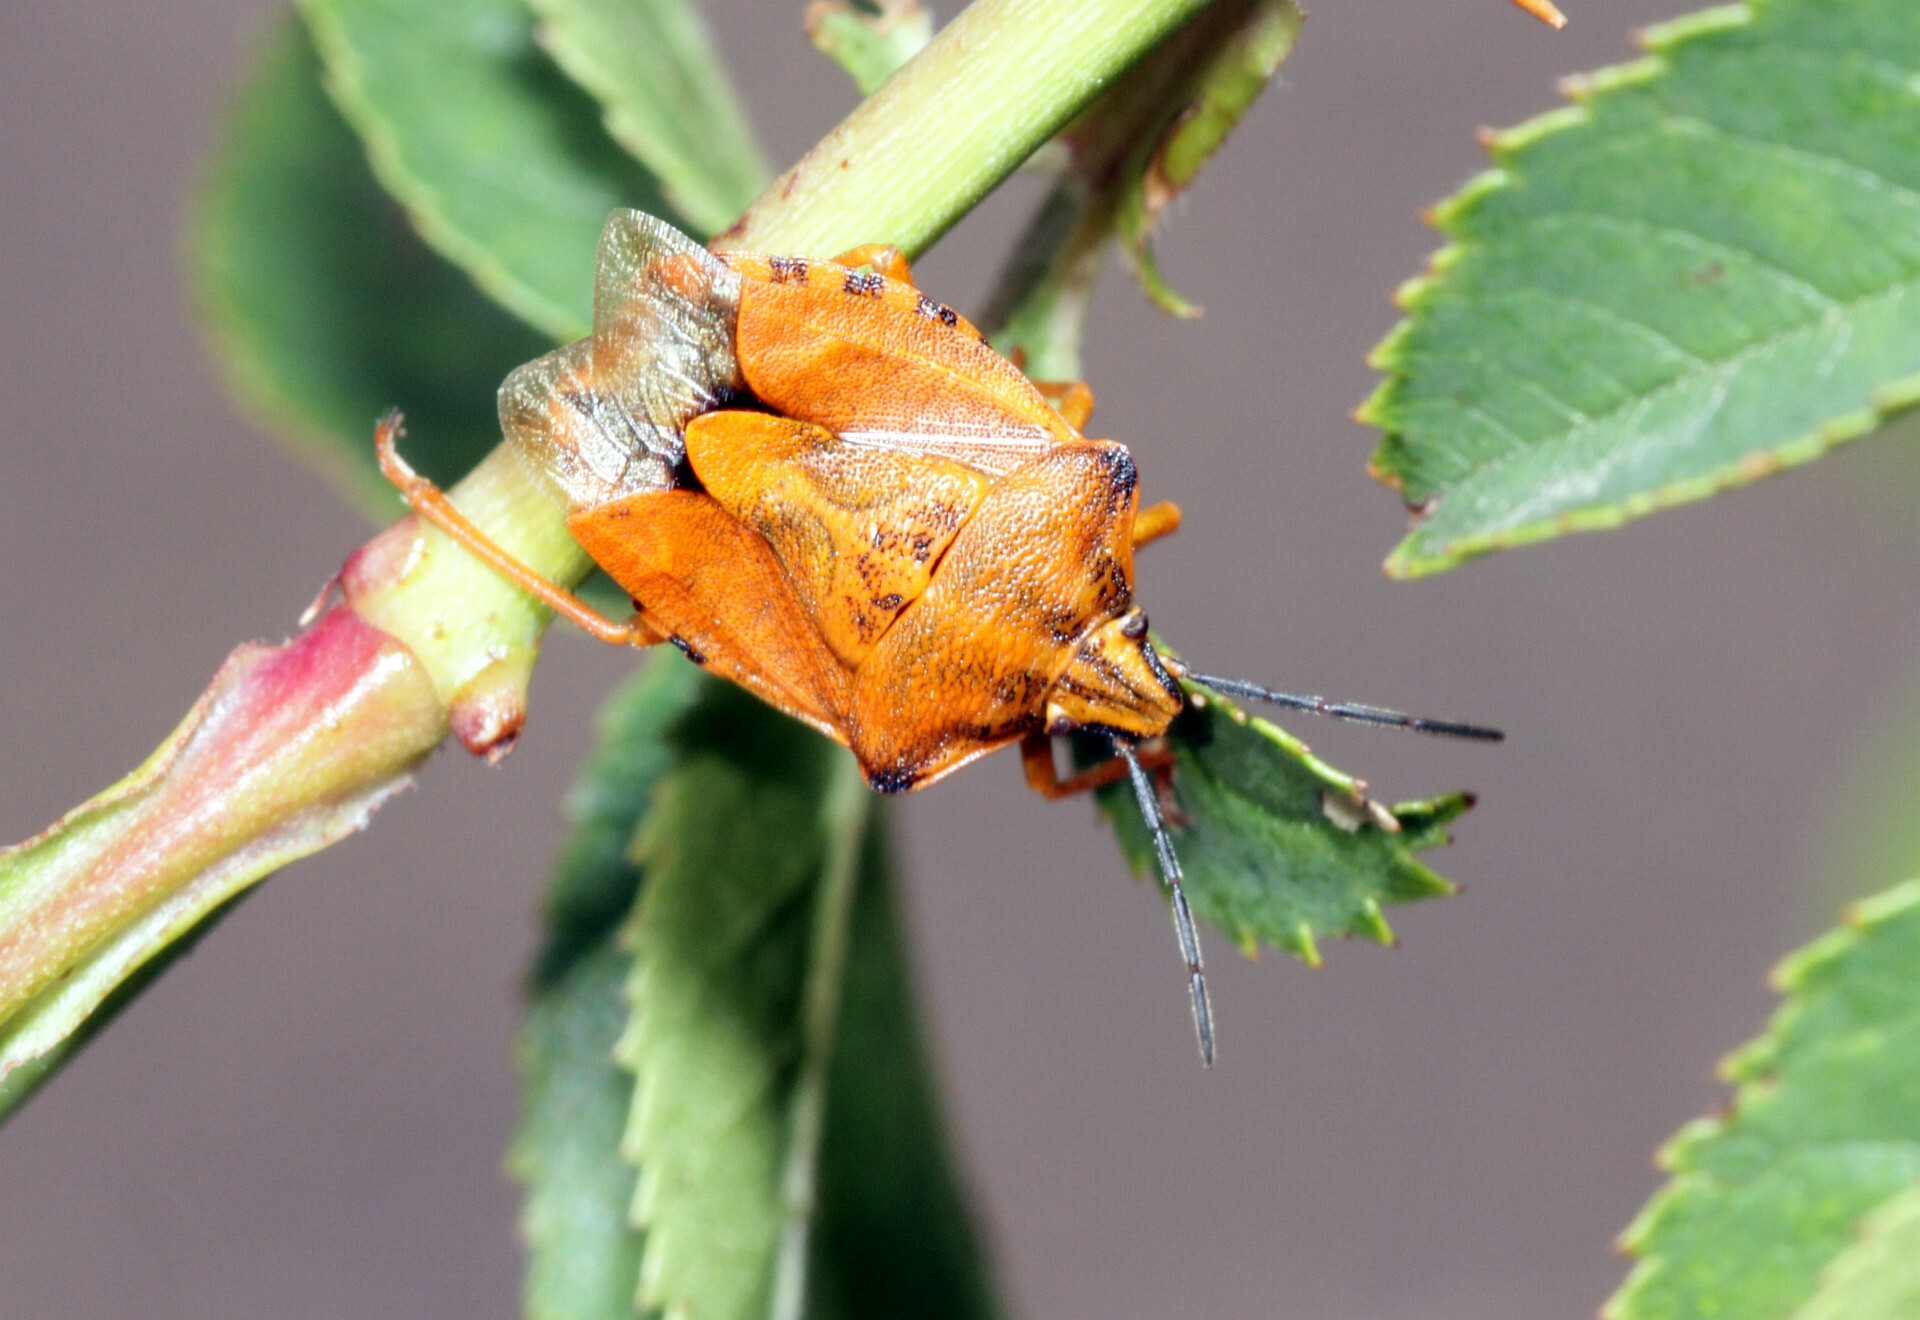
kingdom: Animalia
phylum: Arthropoda
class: Insecta
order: Hemiptera
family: Pentatomidae
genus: Carpocoris
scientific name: Carpocoris purpureipennis
